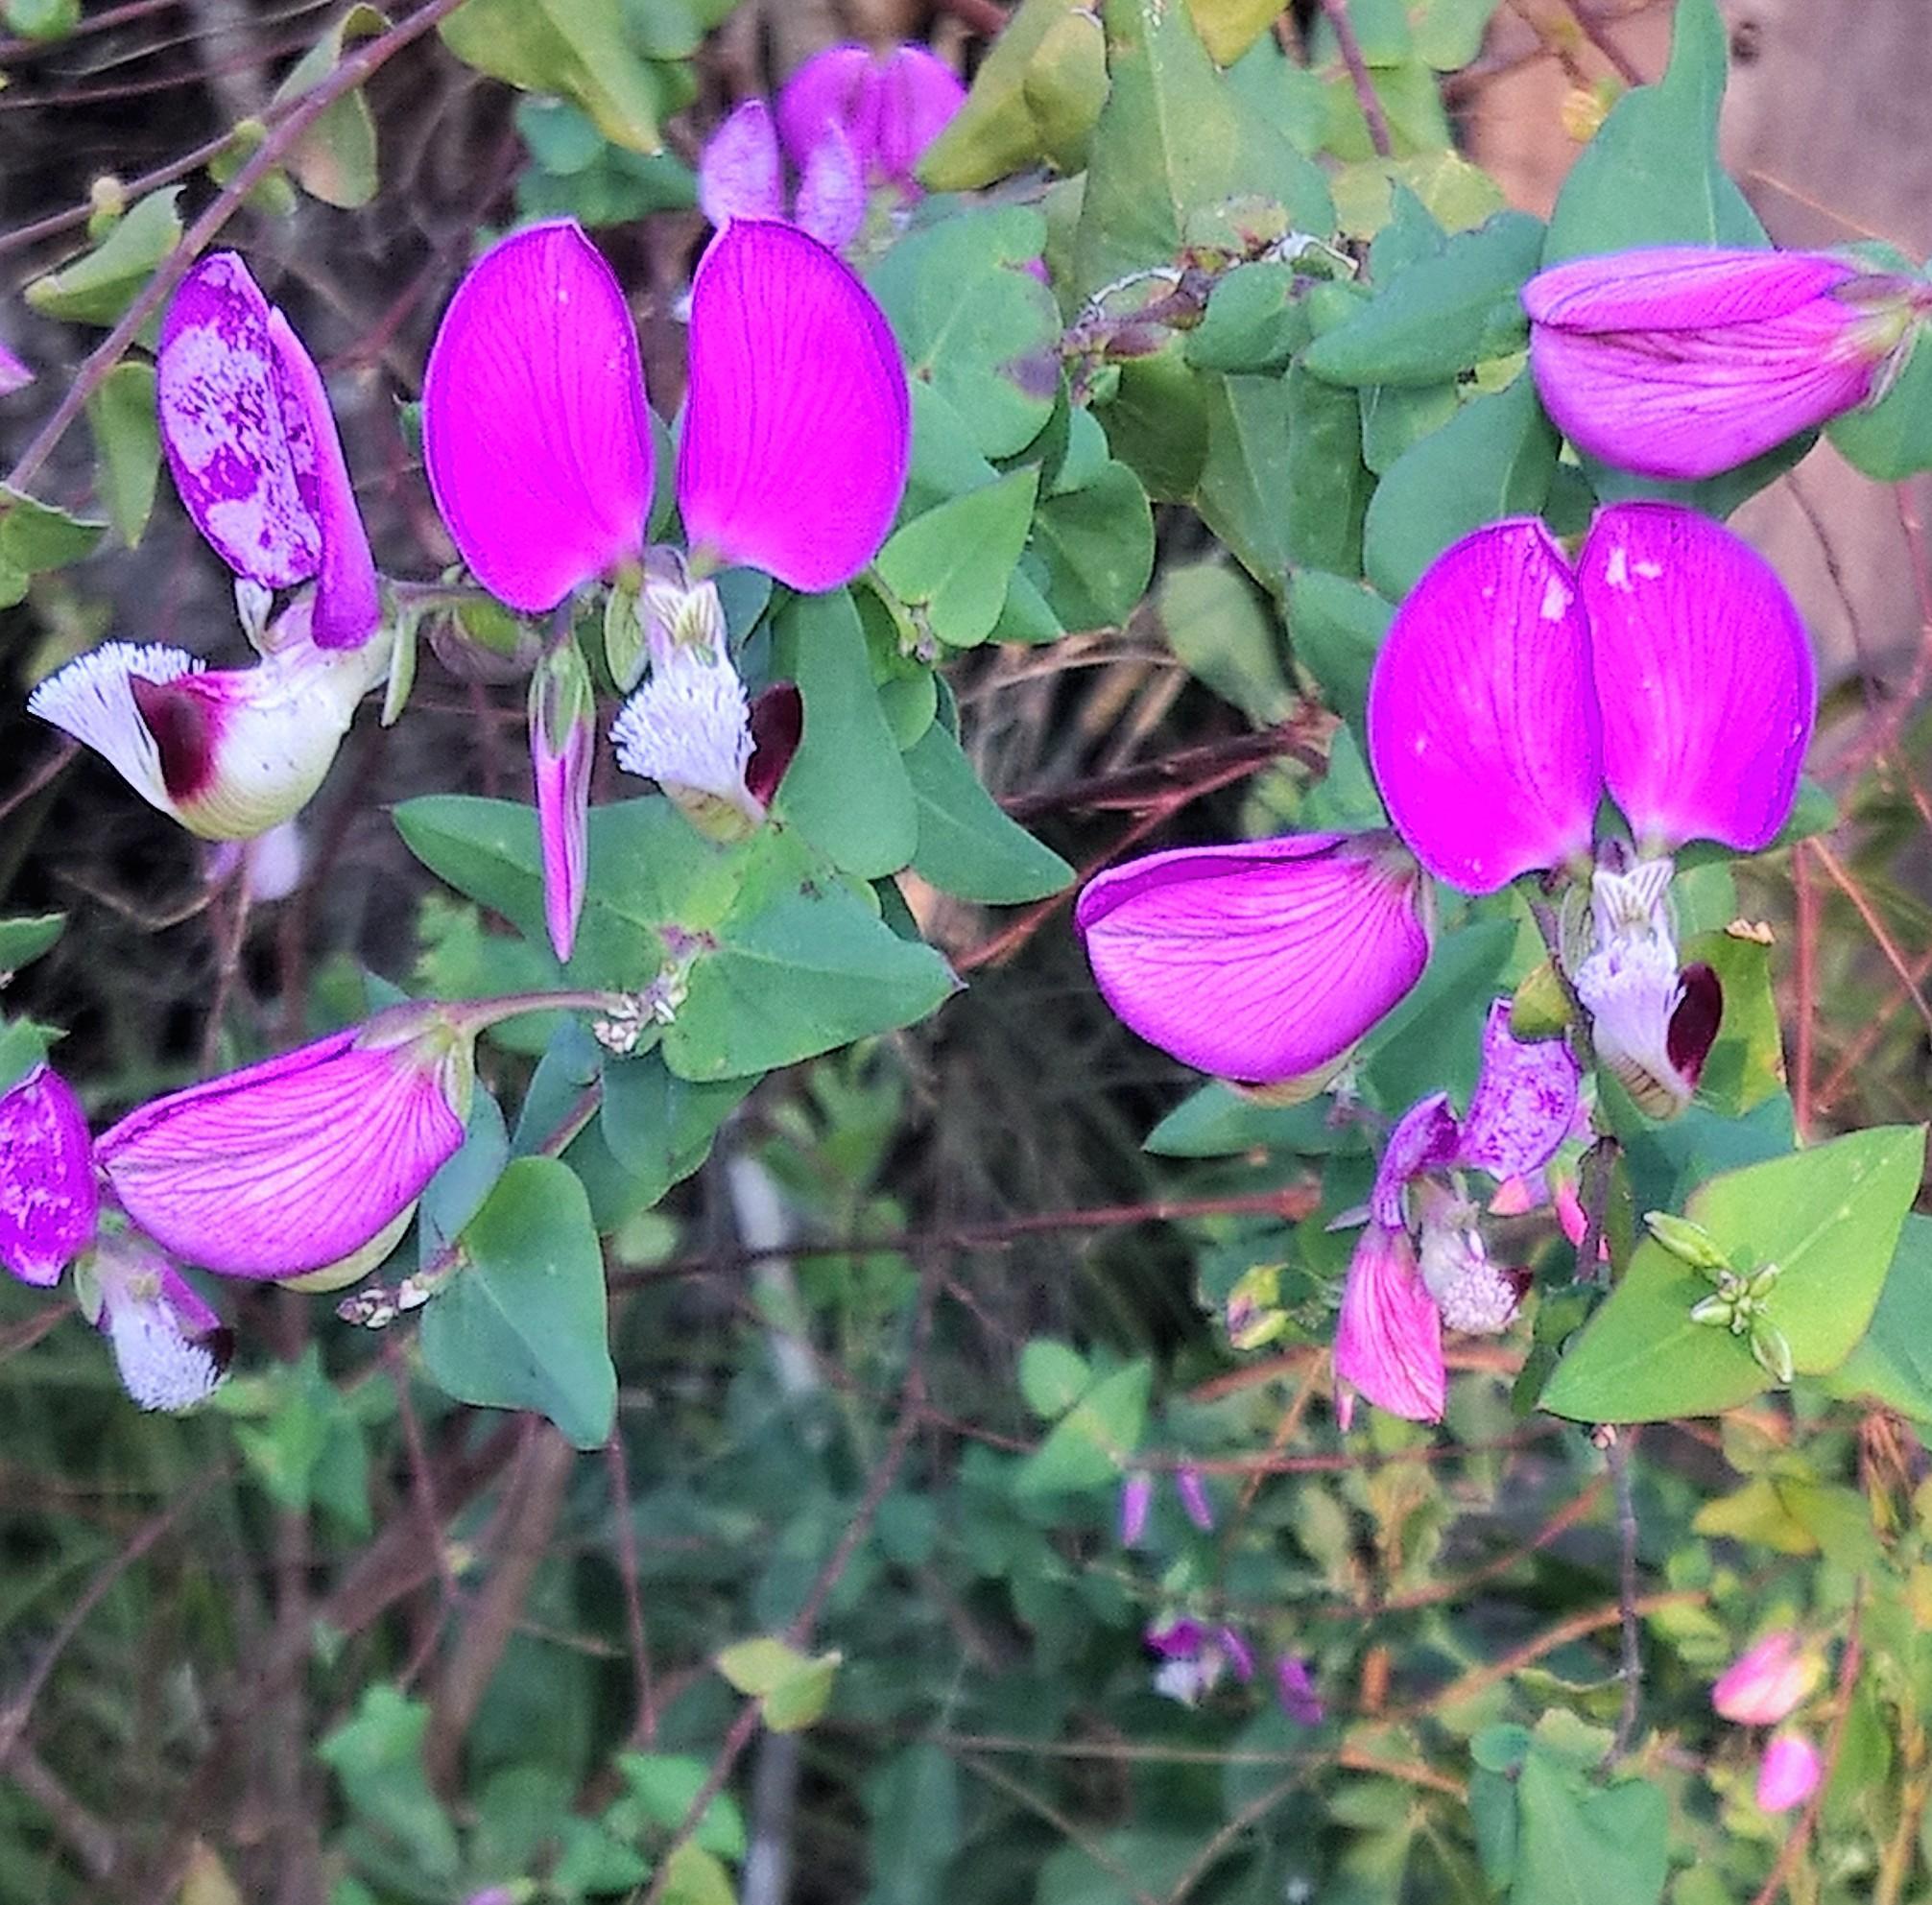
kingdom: Plantae
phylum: Tracheophyta
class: Magnoliopsida
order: Fabales
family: Polygalaceae
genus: Polygala
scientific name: Polygala fruticosa
